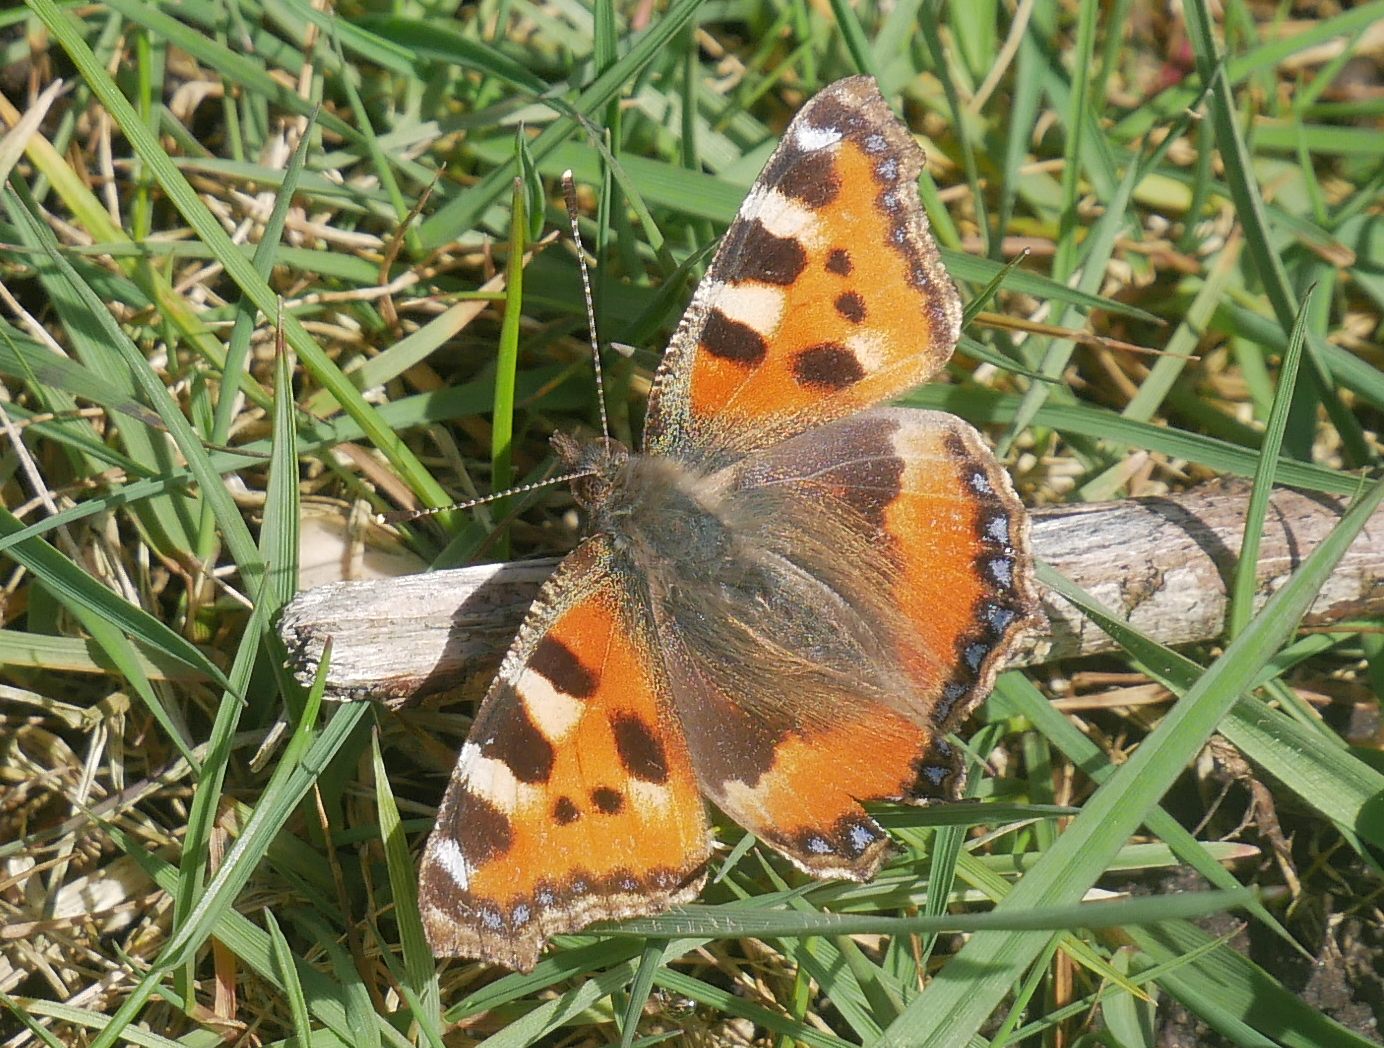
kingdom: Animalia
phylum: Arthropoda
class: Insecta
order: Lepidoptera
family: Nymphalidae
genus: Aglais
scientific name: Aglais urticae
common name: Small tortoiseshell
